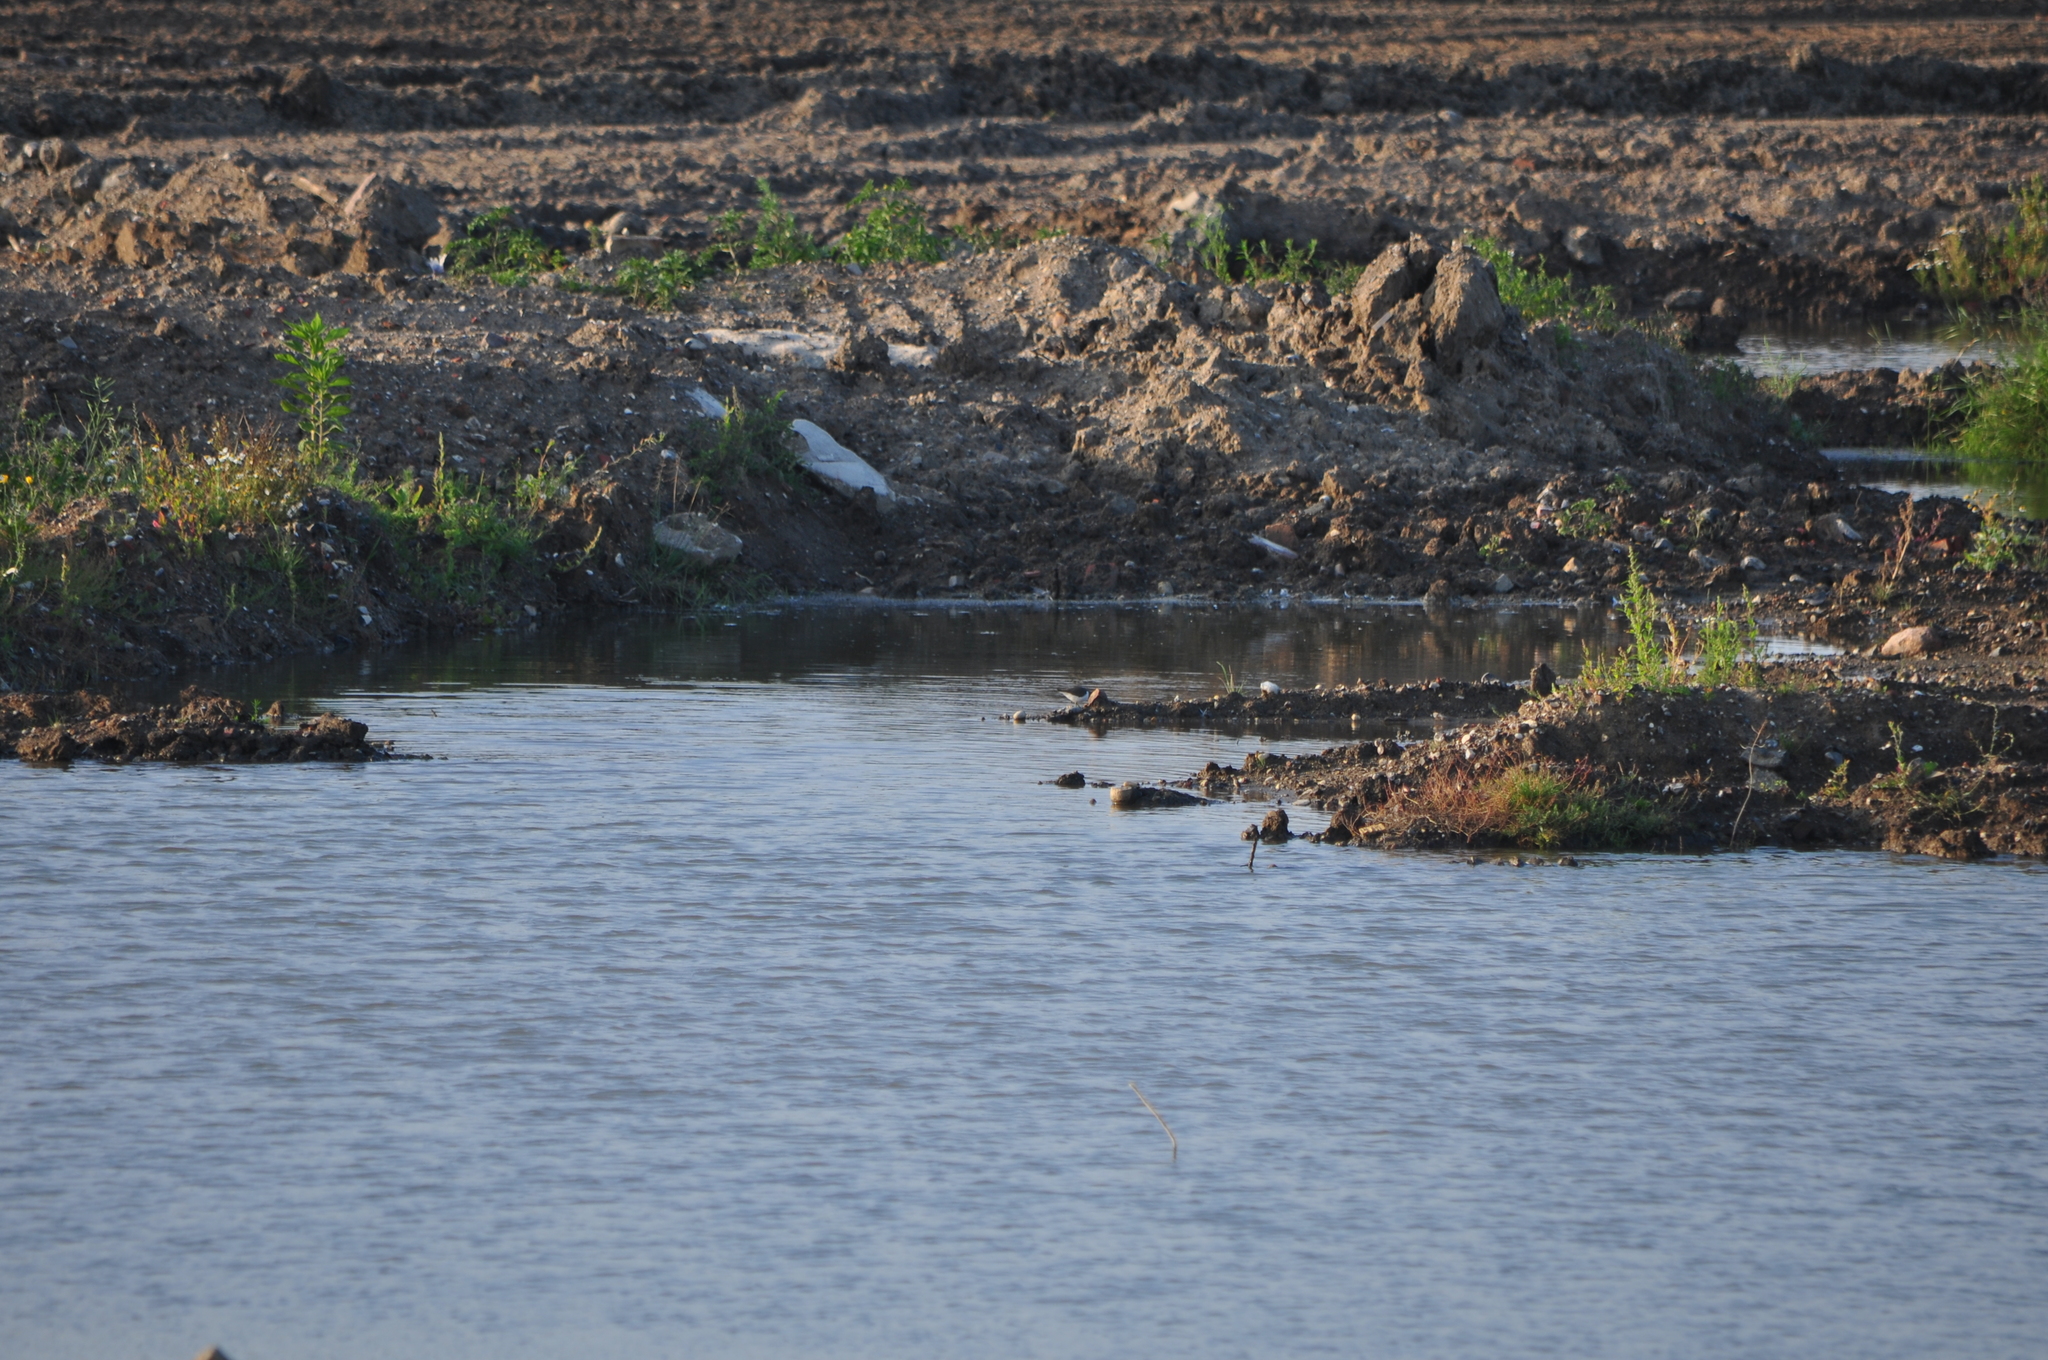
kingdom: Animalia
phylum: Chordata
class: Aves
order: Charadriiformes
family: Scolopacidae
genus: Actitis
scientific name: Actitis hypoleucos
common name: Common sandpiper
